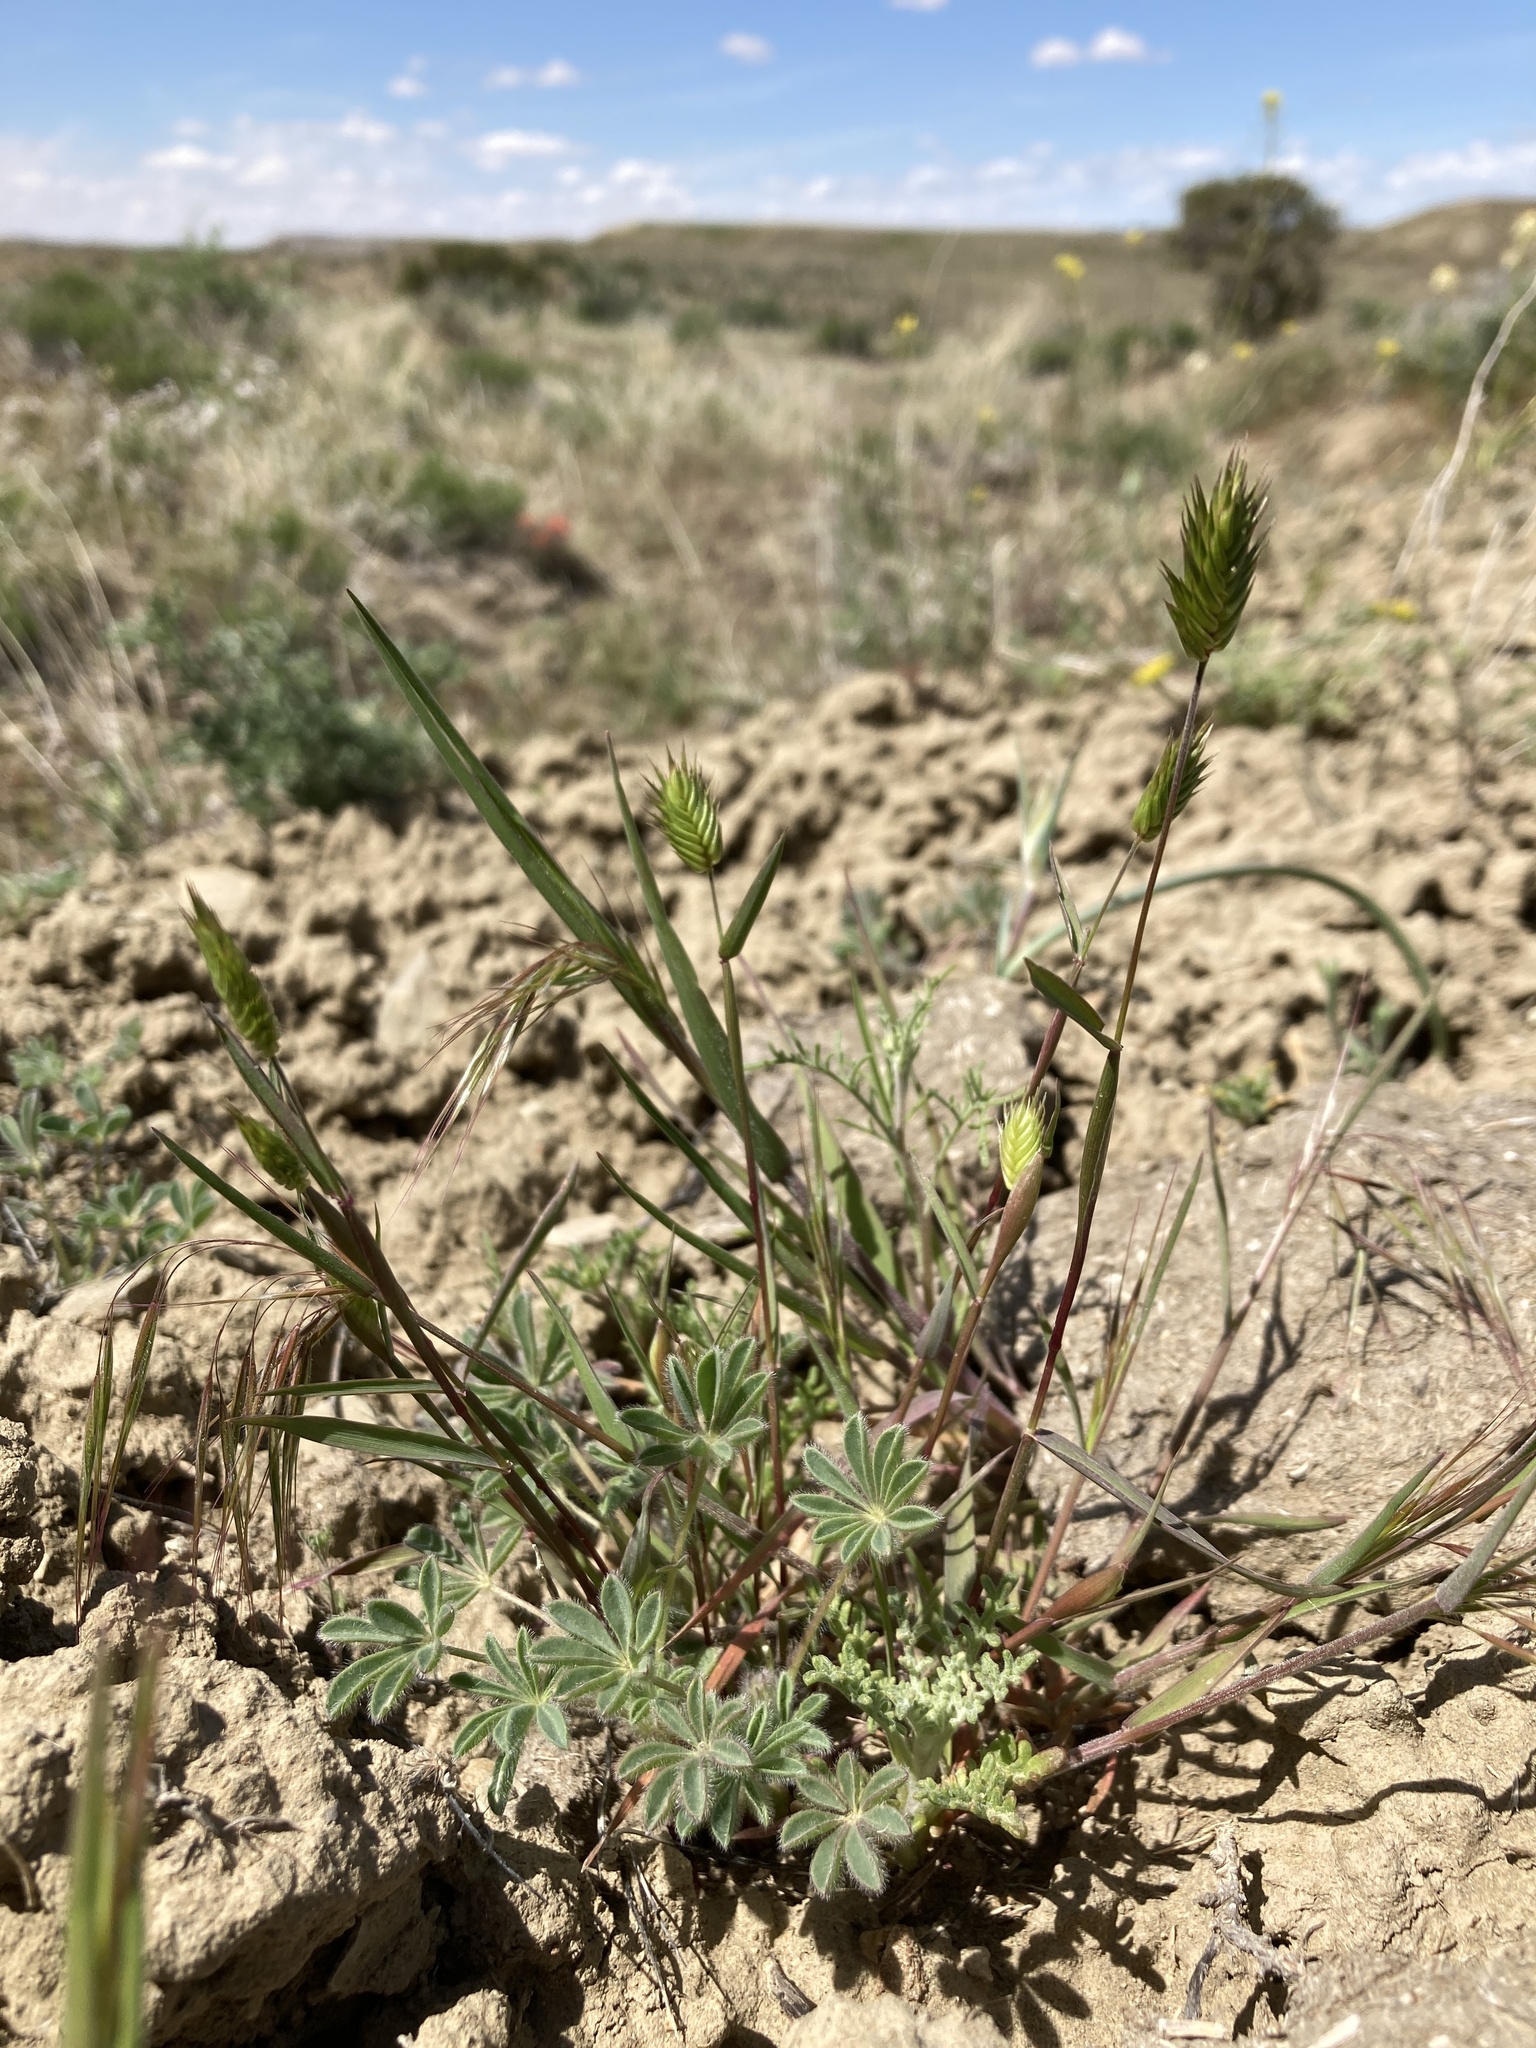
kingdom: Plantae
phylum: Tracheophyta
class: Liliopsida
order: Poales
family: Poaceae
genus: Eremopyrum
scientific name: Eremopyrum triticeum
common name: Annual wheatgrass
